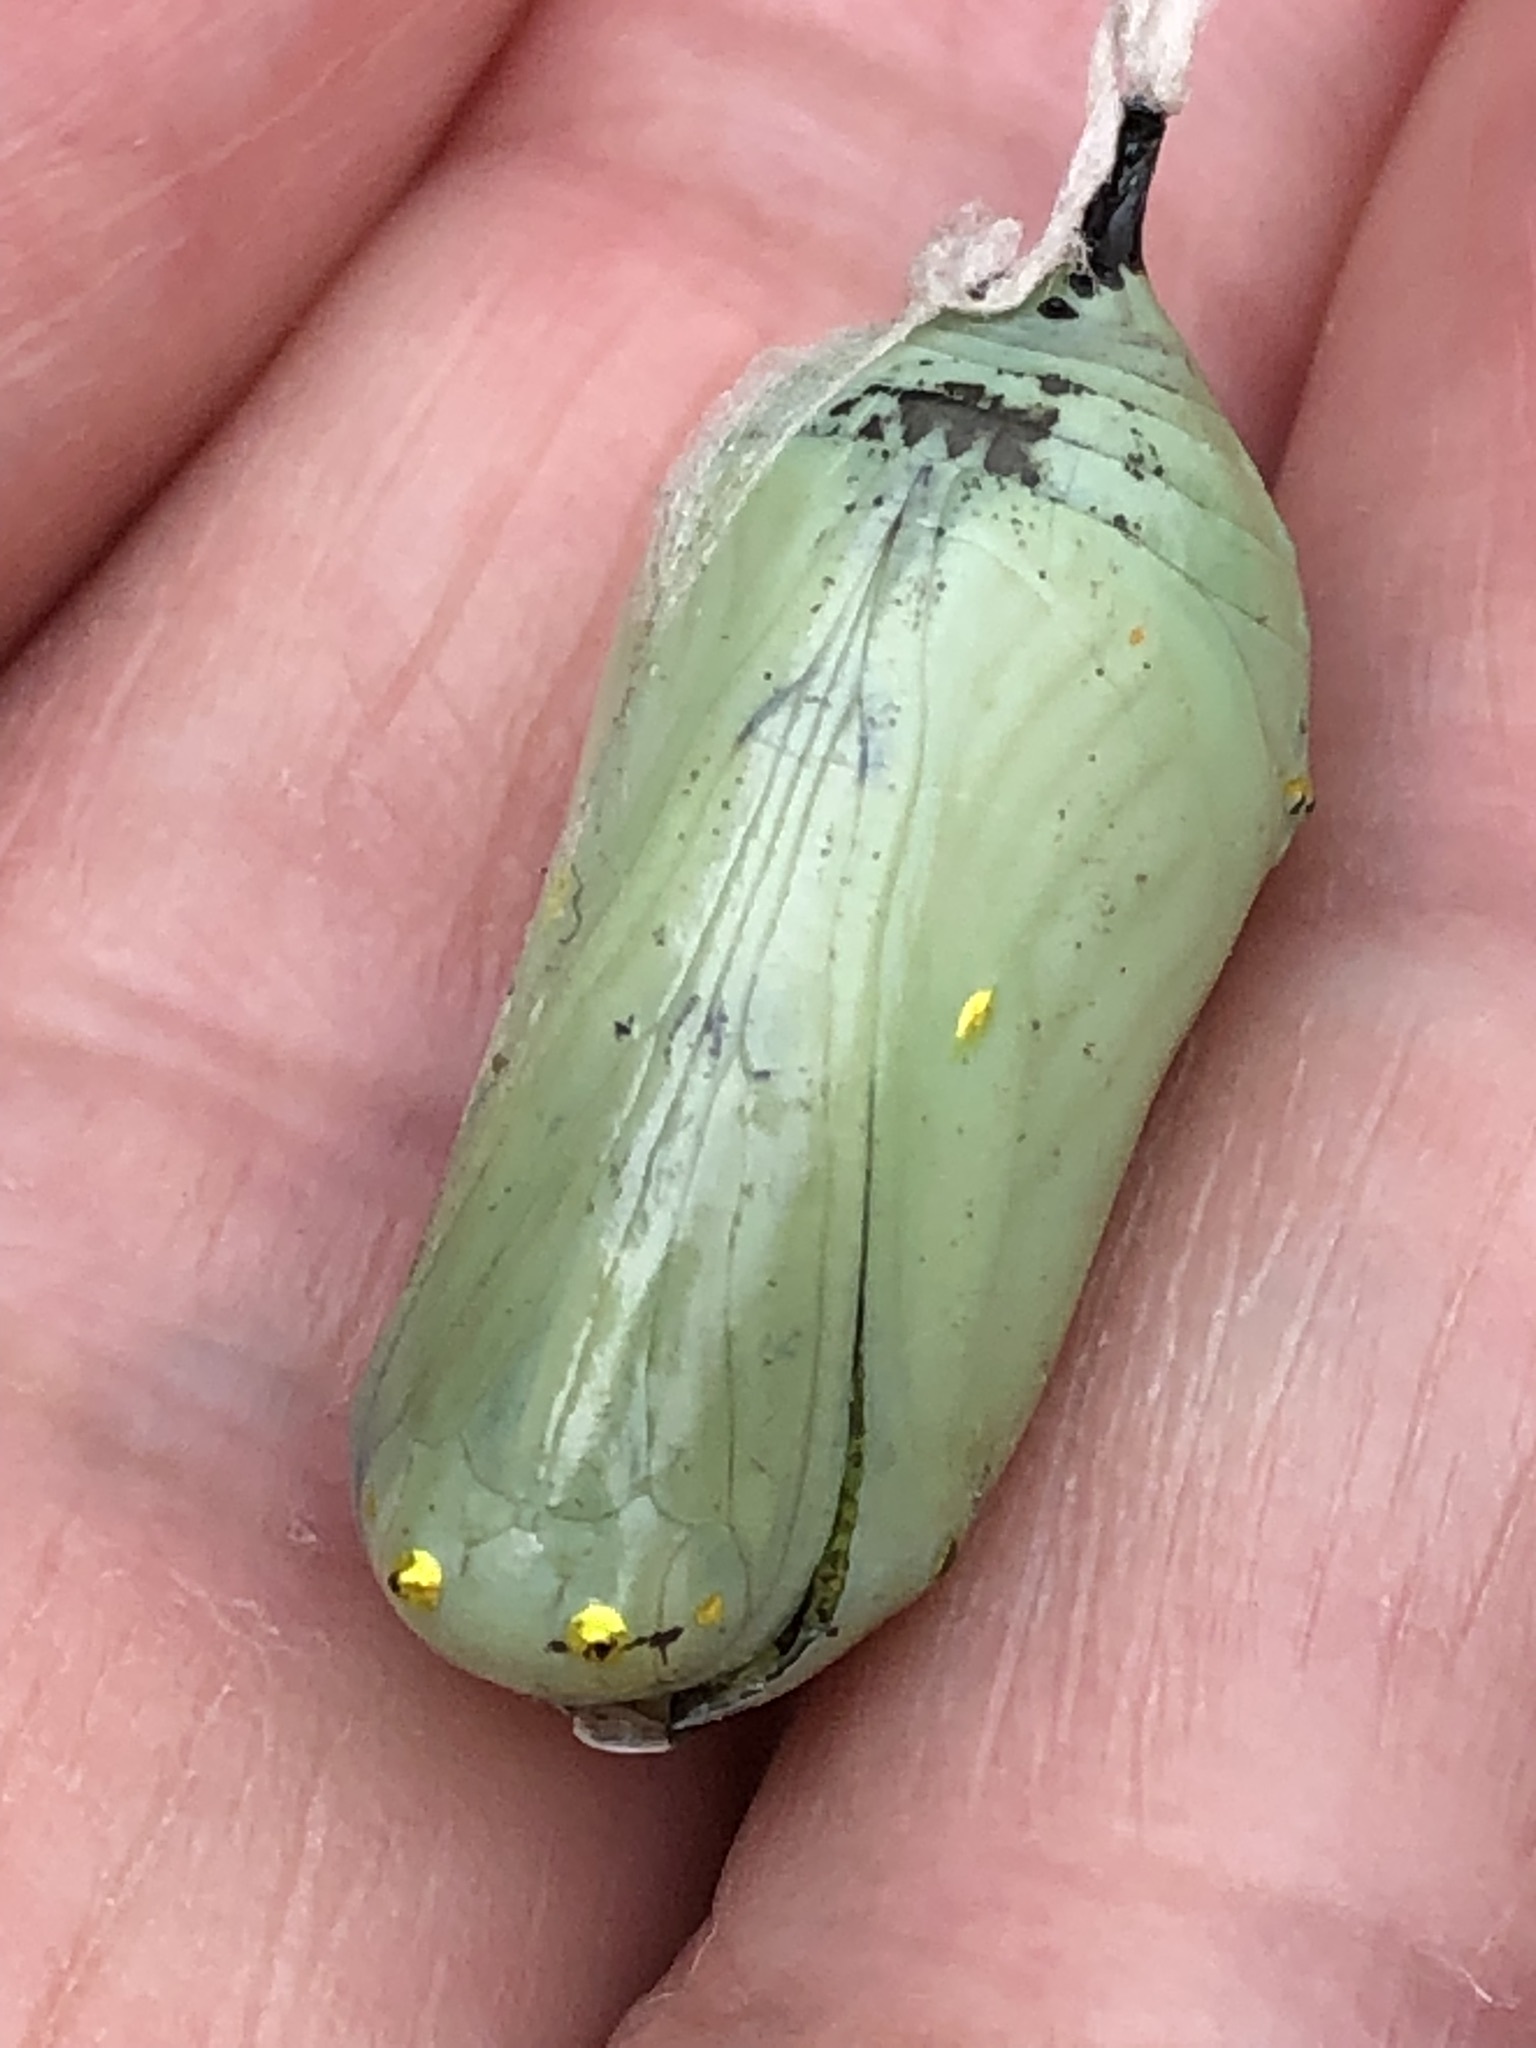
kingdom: Animalia
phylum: Arthropoda
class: Insecta
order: Lepidoptera
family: Nymphalidae
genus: Danaus
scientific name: Danaus plexippus
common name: Monarch
